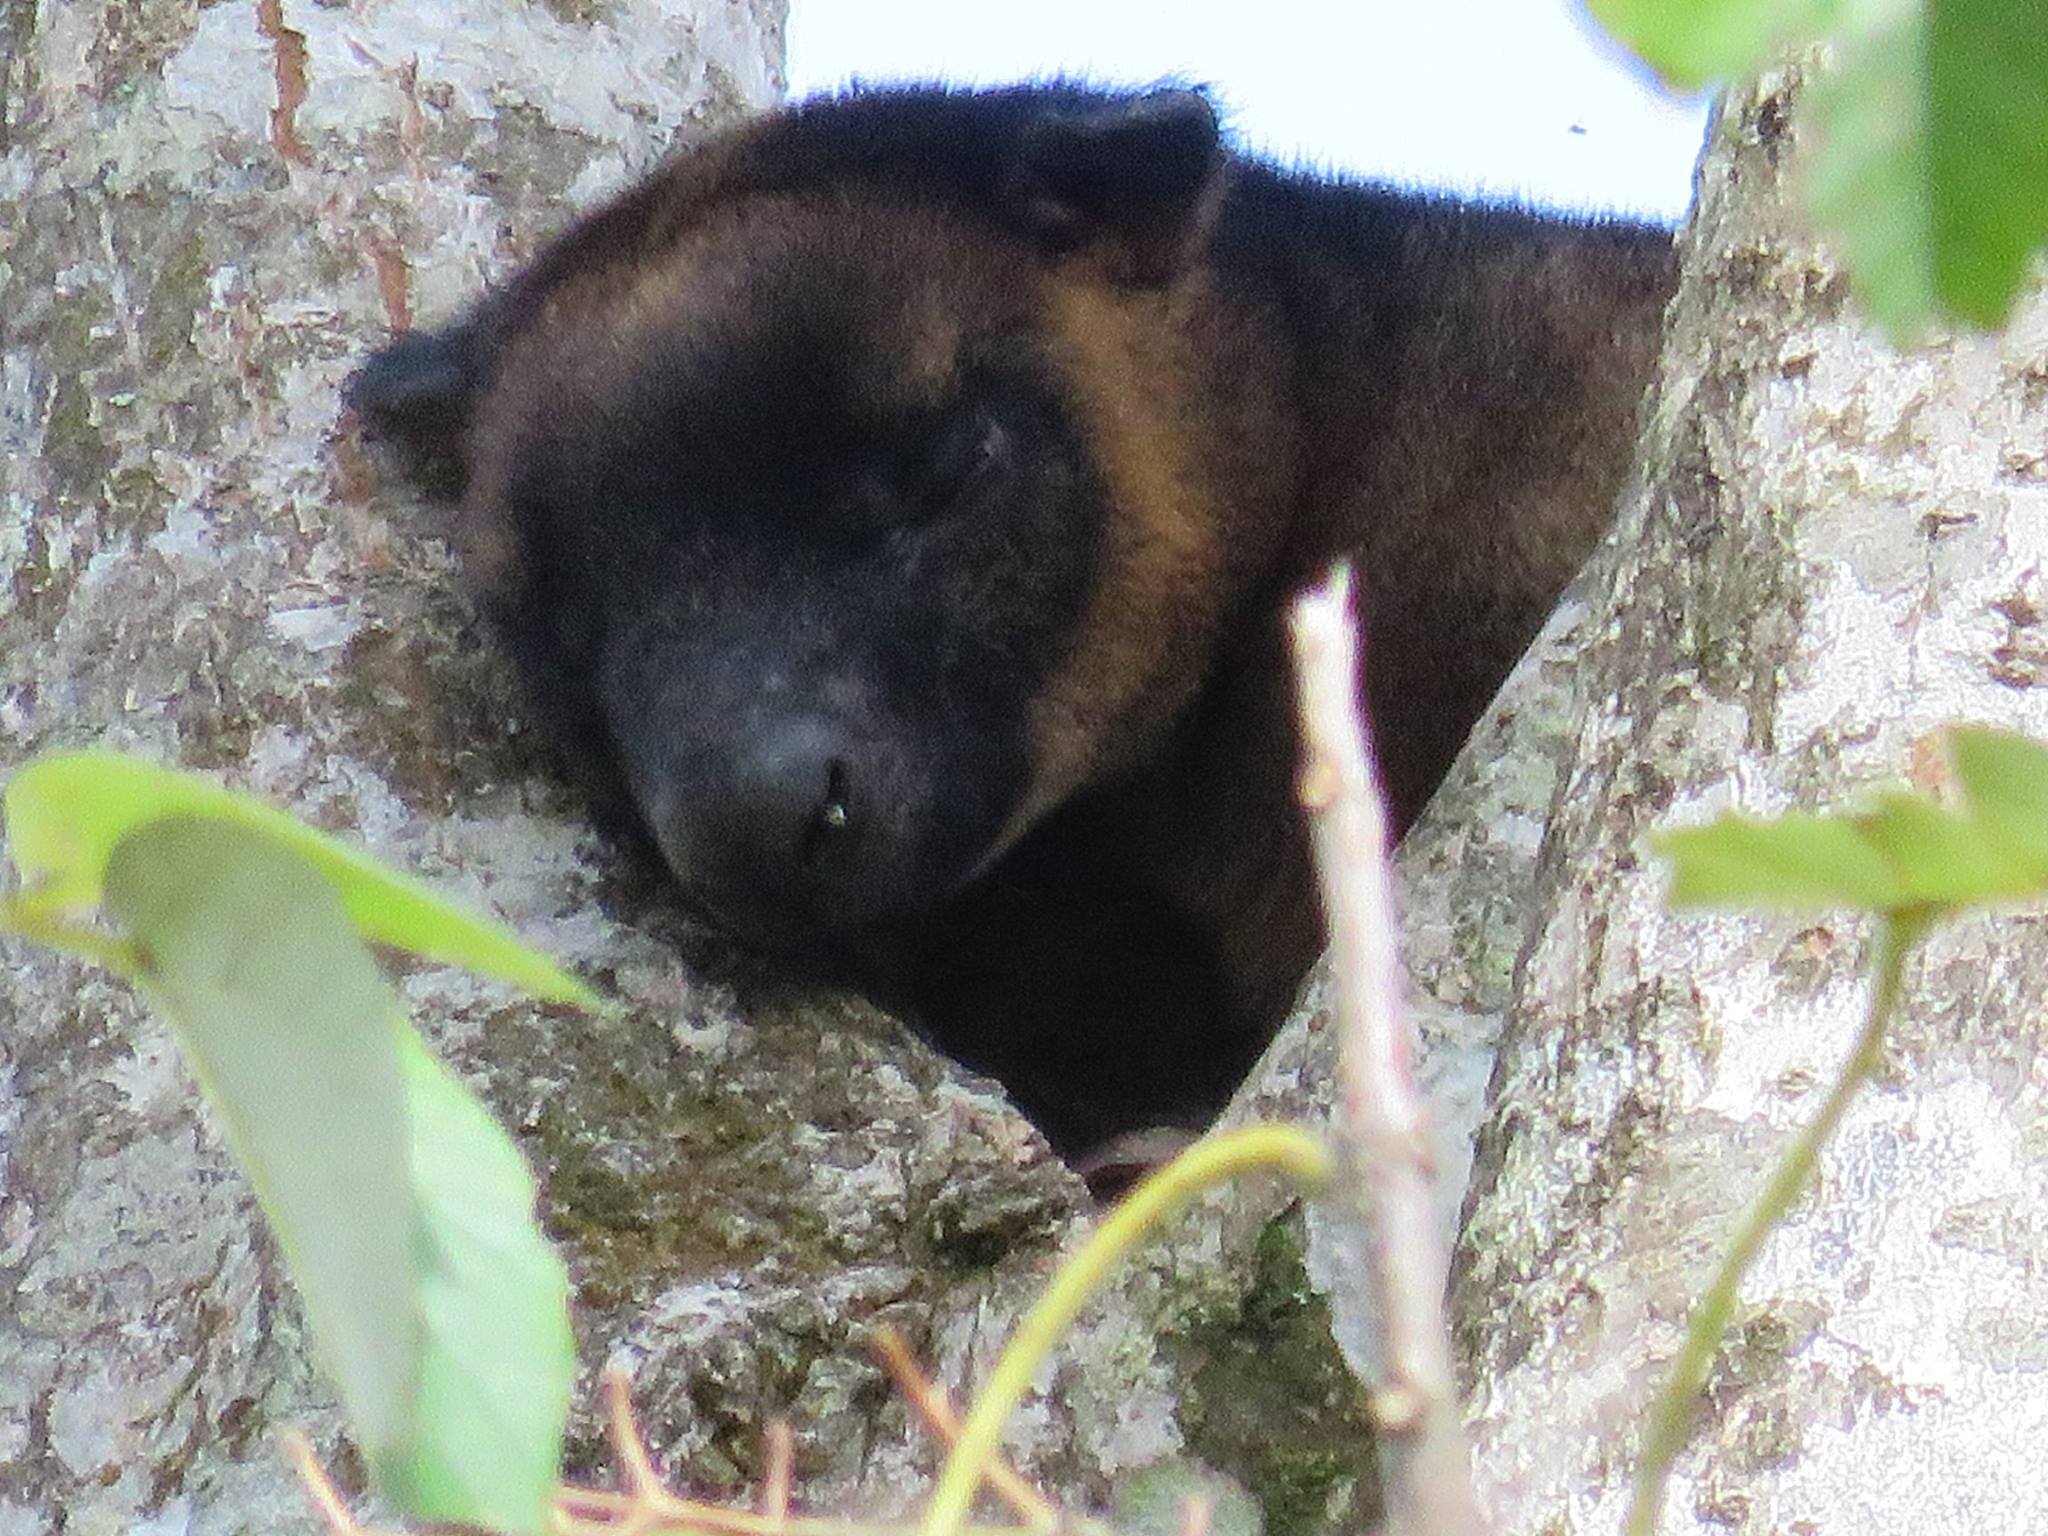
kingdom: Animalia
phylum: Chordata
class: Mammalia
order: Diprotodontia
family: Macropodidae
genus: Dendrolagus
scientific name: Dendrolagus lumholtzi
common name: Lumholtz's tree kangaroo
